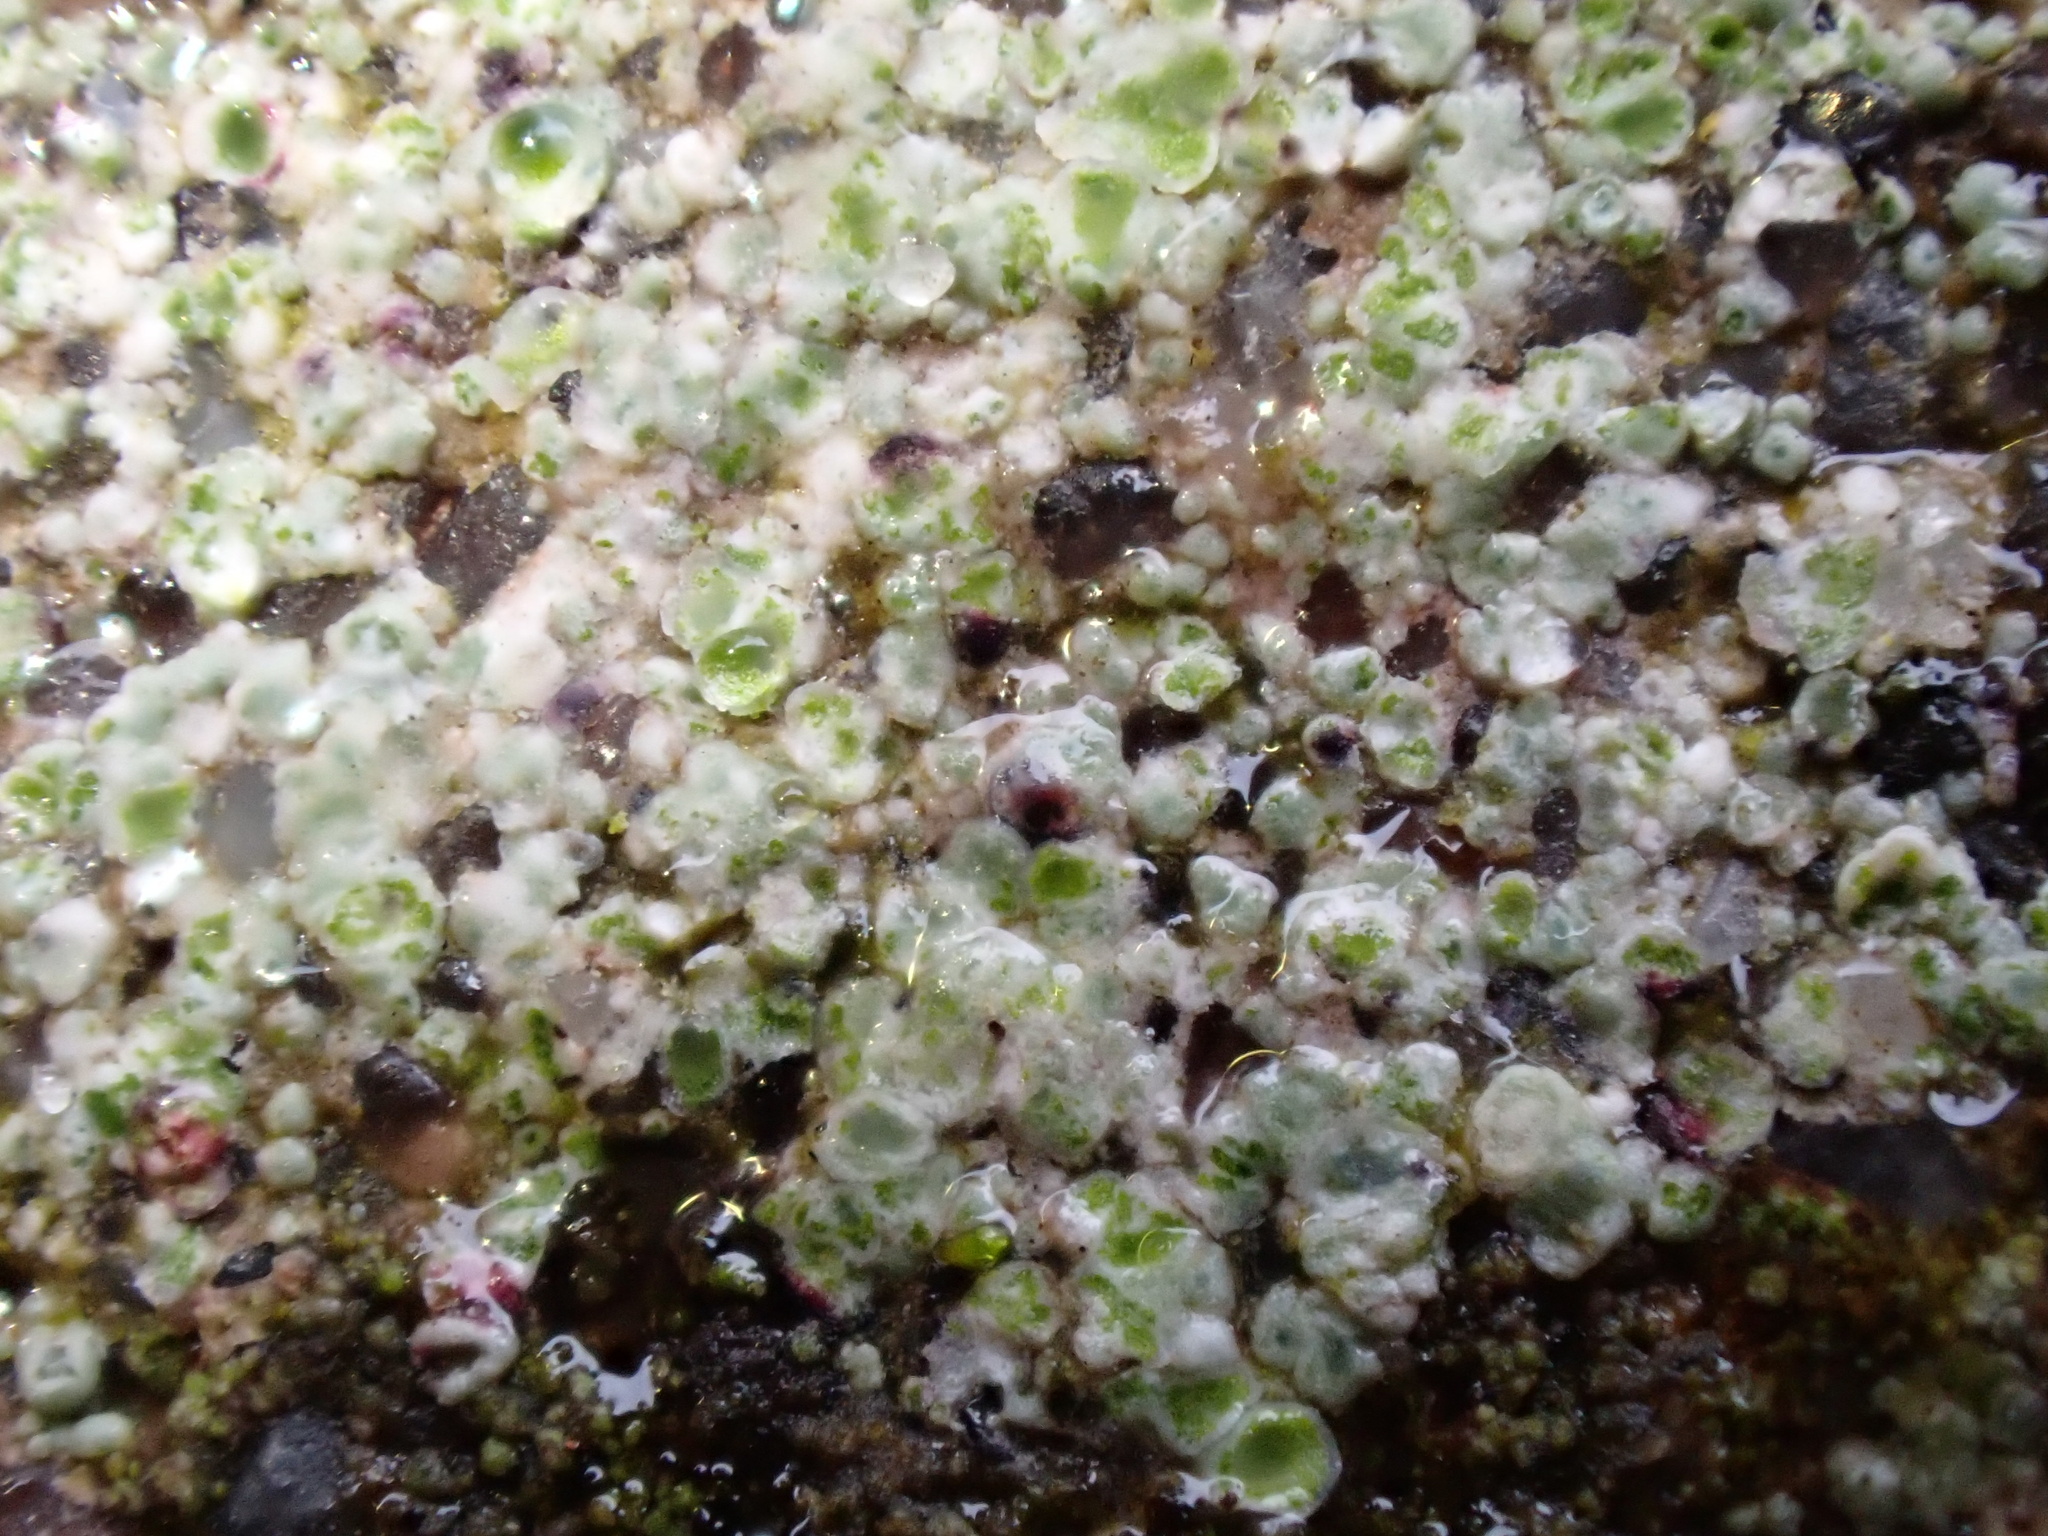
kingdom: Fungi
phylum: Ascomycota
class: Lecanoromycetes
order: Lecanorales
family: Lecanoraceae
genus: Polyozosia
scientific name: Polyozosia albescens
